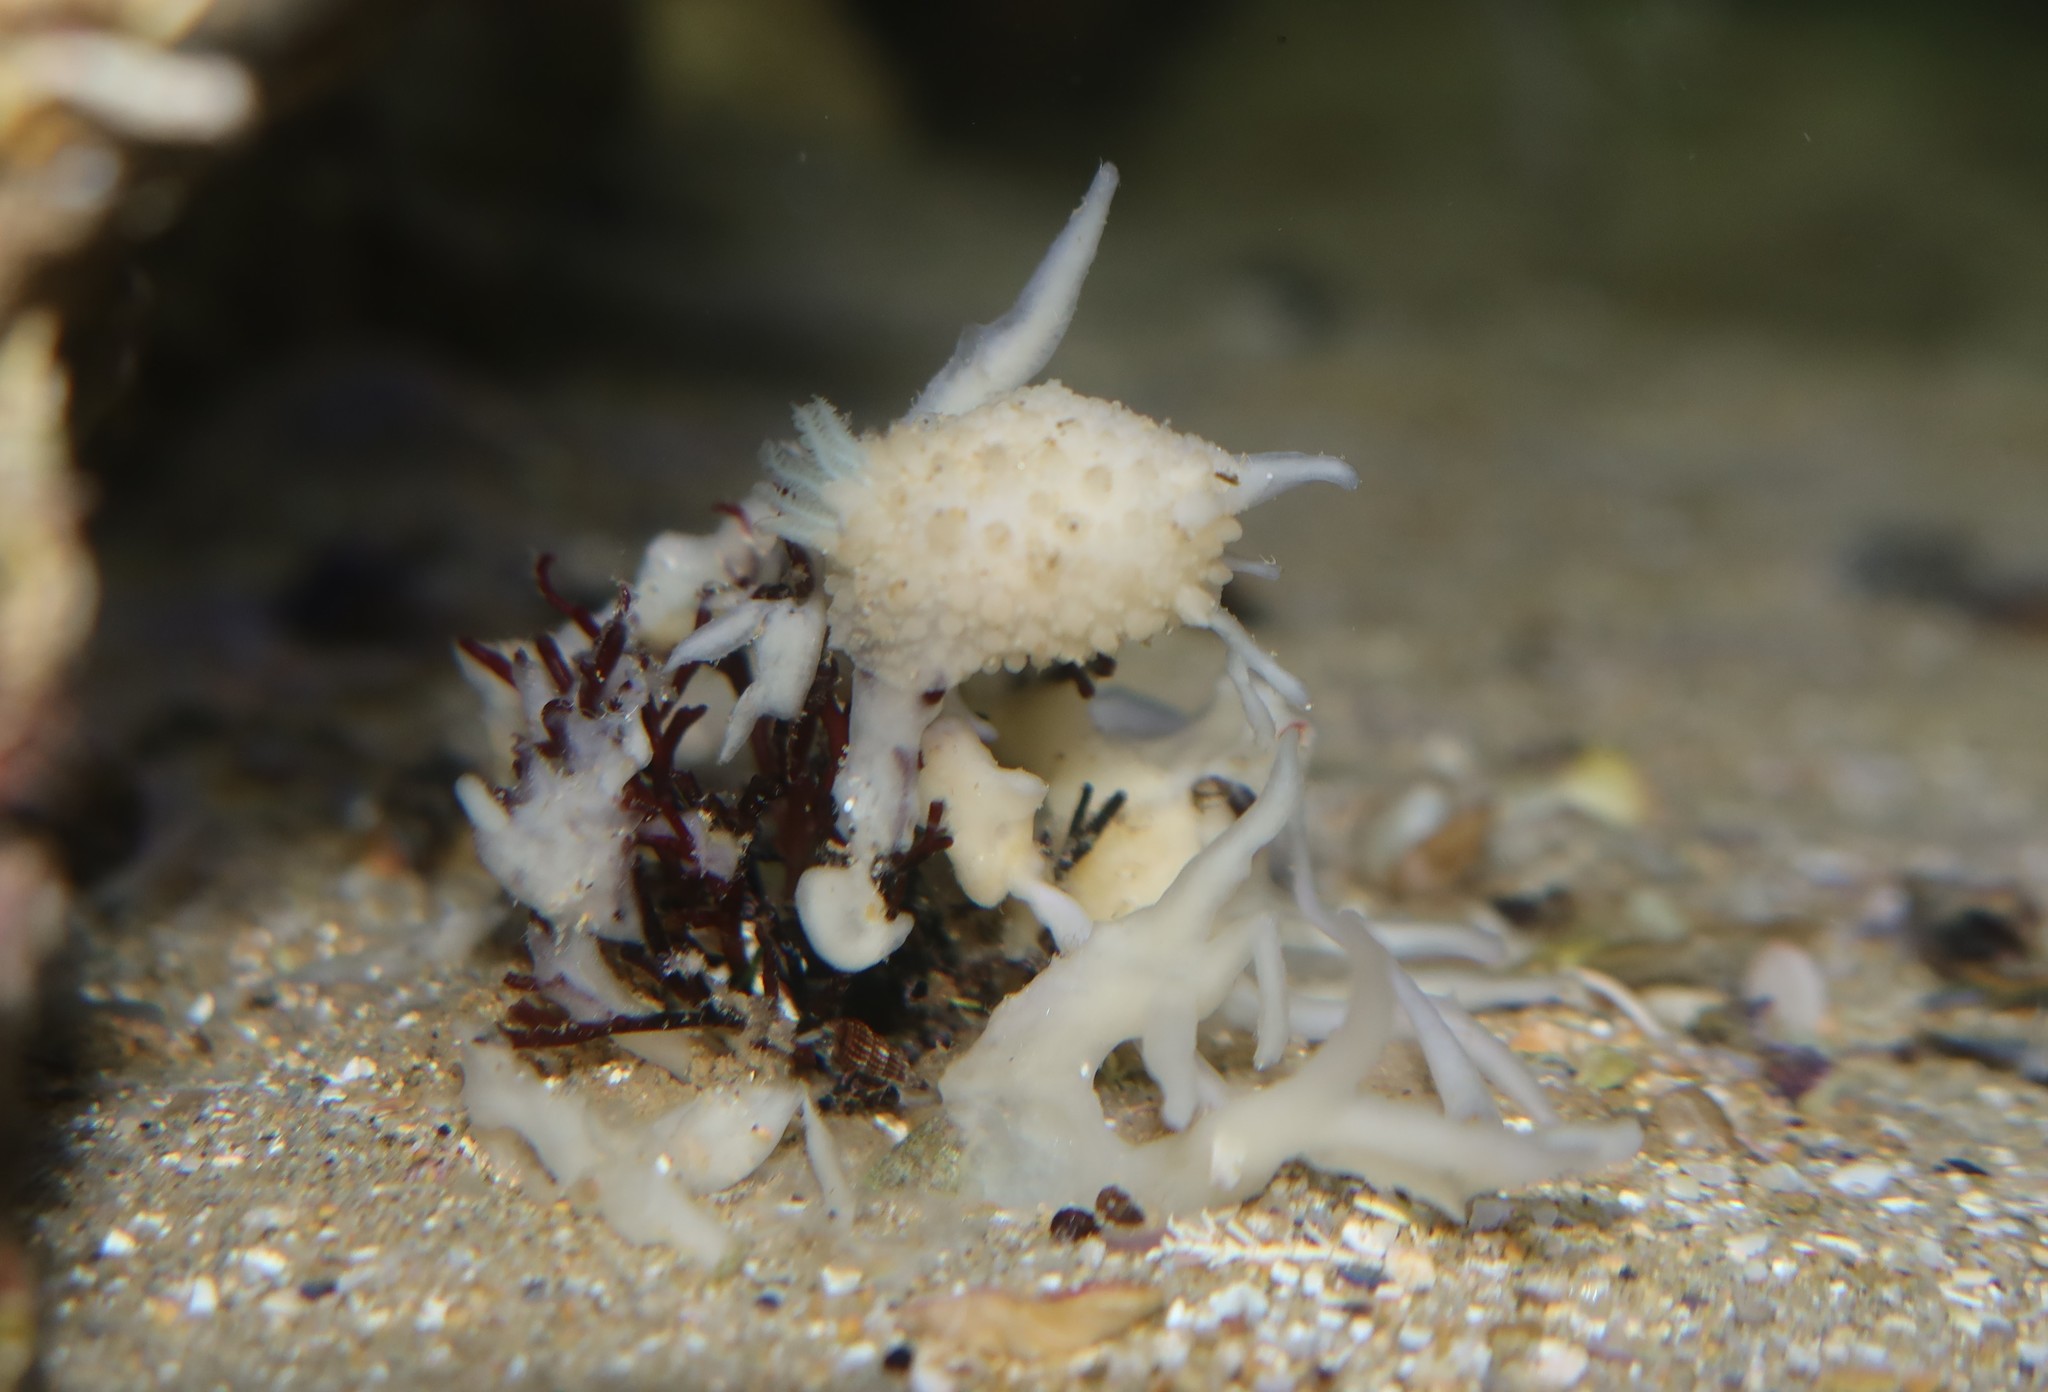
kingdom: Animalia
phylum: Mollusca
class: Gastropoda
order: Nudibranchia
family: Dorididae
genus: Doris
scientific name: Doris verrucosa
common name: Sponge seaslug
